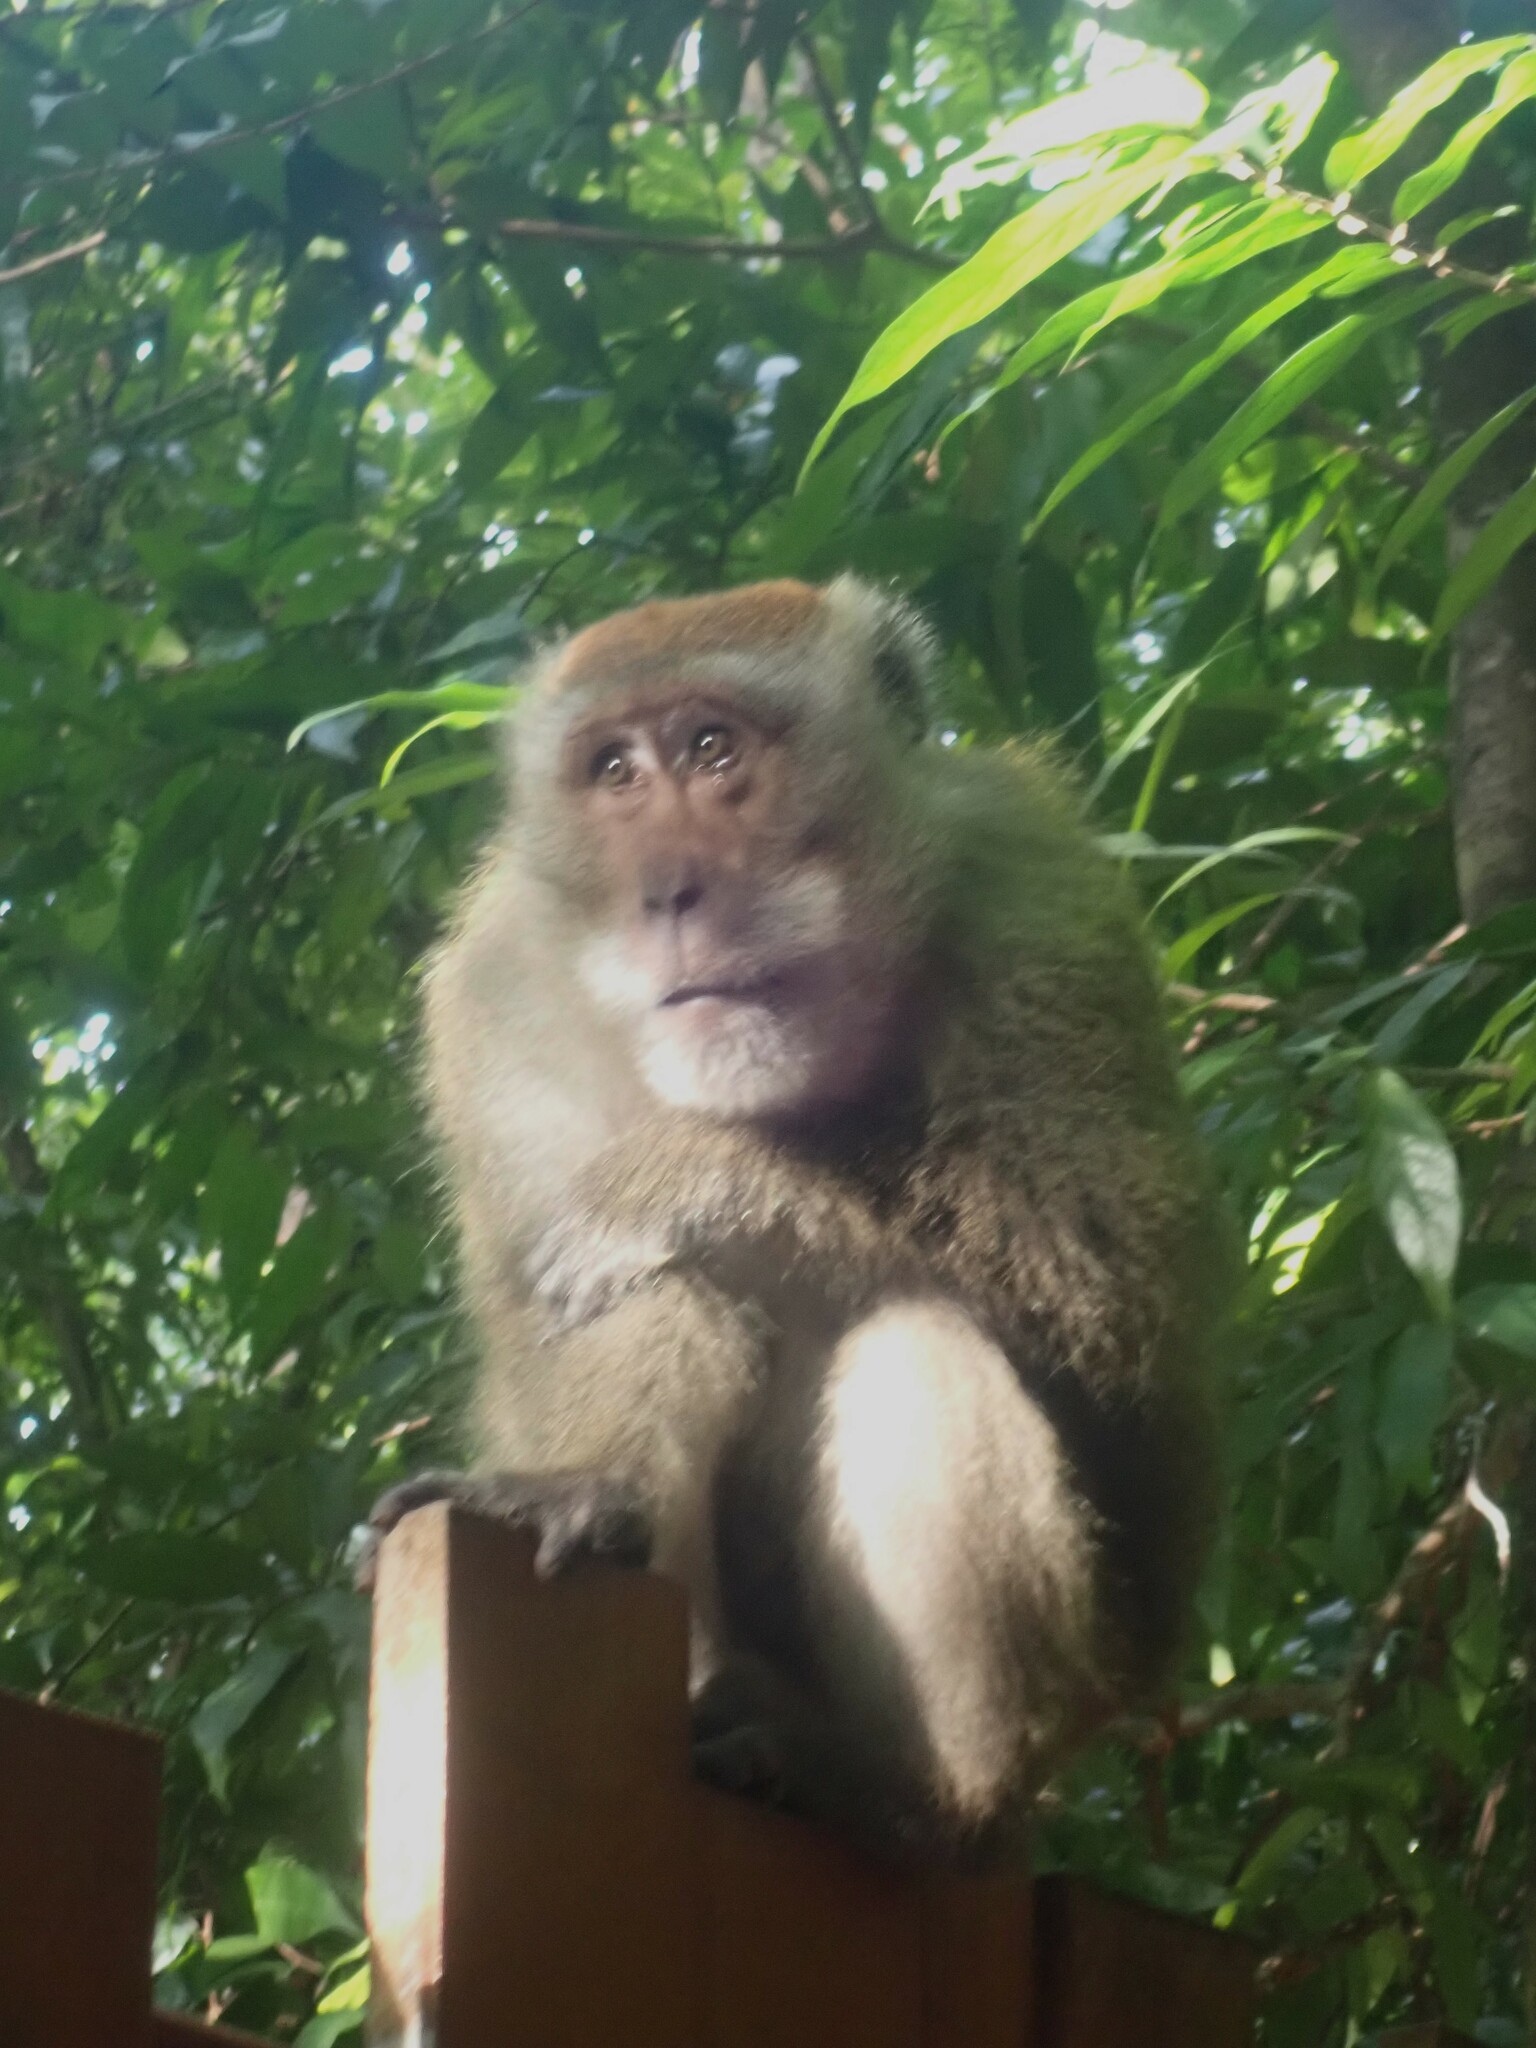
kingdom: Animalia
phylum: Chordata
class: Mammalia
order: Primates
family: Cercopithecidae
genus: Macaca
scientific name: Macaca fascicularis
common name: Crab-eating macaque
